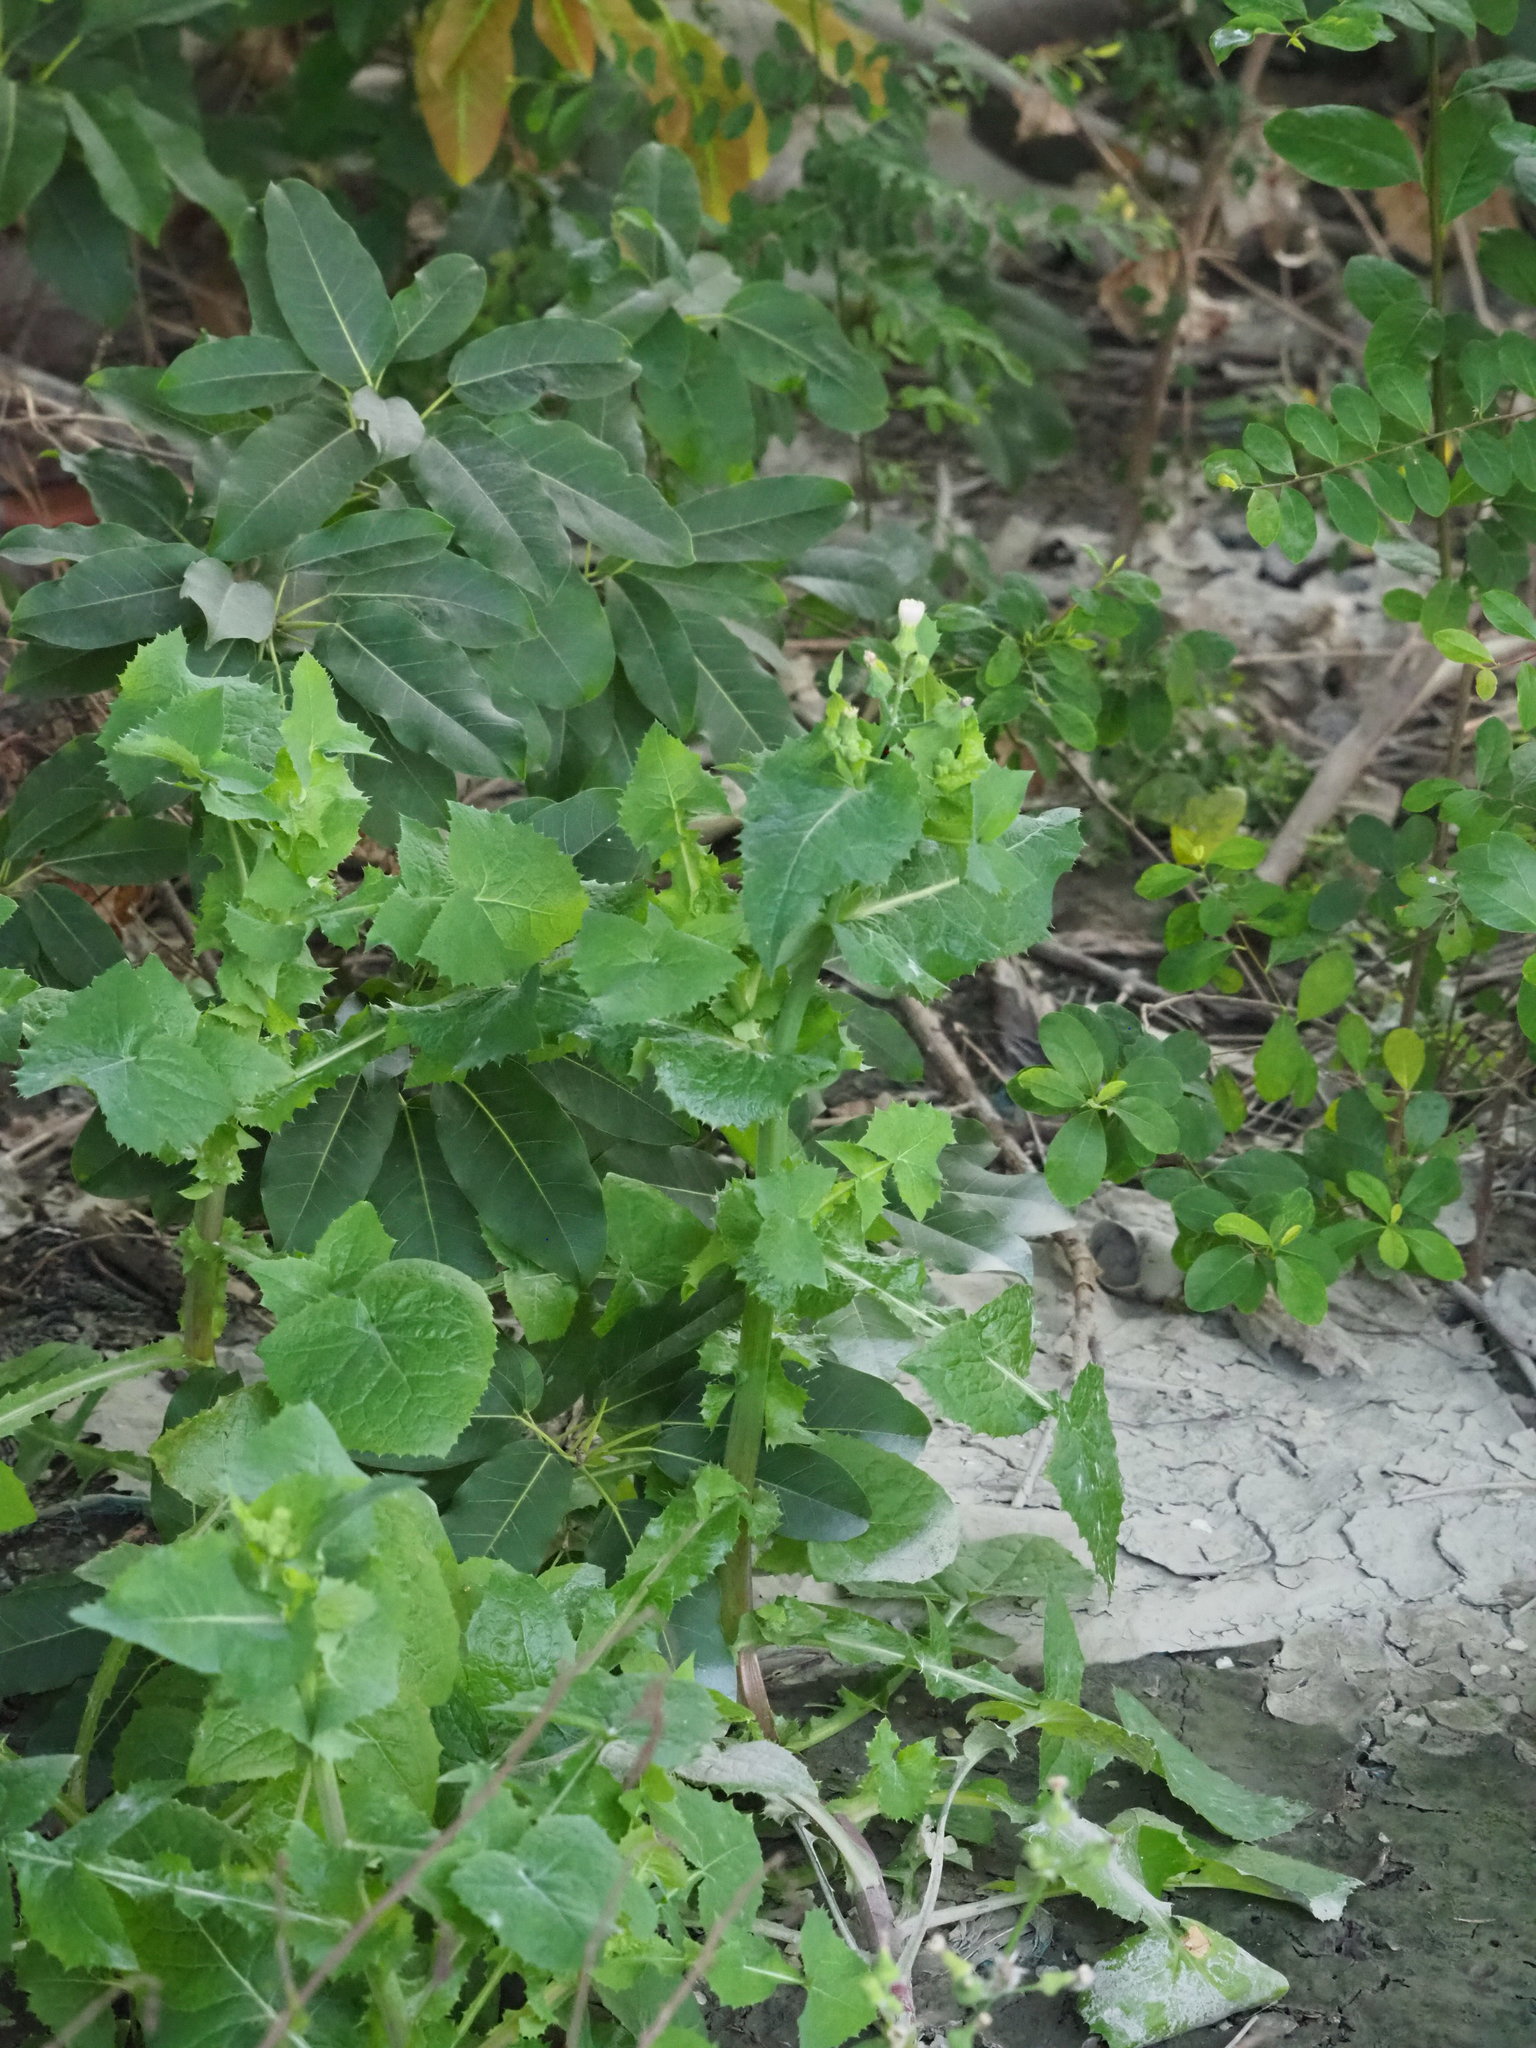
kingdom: Plantae
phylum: Tracheophyta
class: Magnoliopsida
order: Asterales
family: Asteraceae
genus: Sonchus
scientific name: Sonchus oleraceus
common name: Common sowthistle
